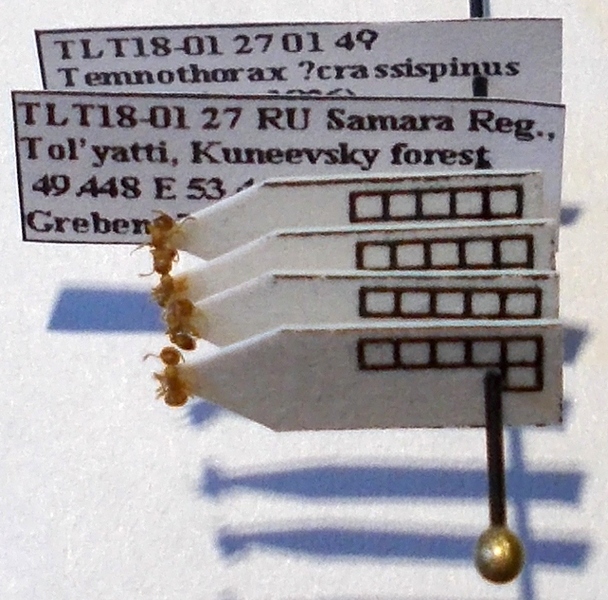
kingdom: Animalia
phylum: Arthropoda
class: Insecta
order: Hymenoptera
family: Formicidae
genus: Temnothorax
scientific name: Temnothorax crassispinus
